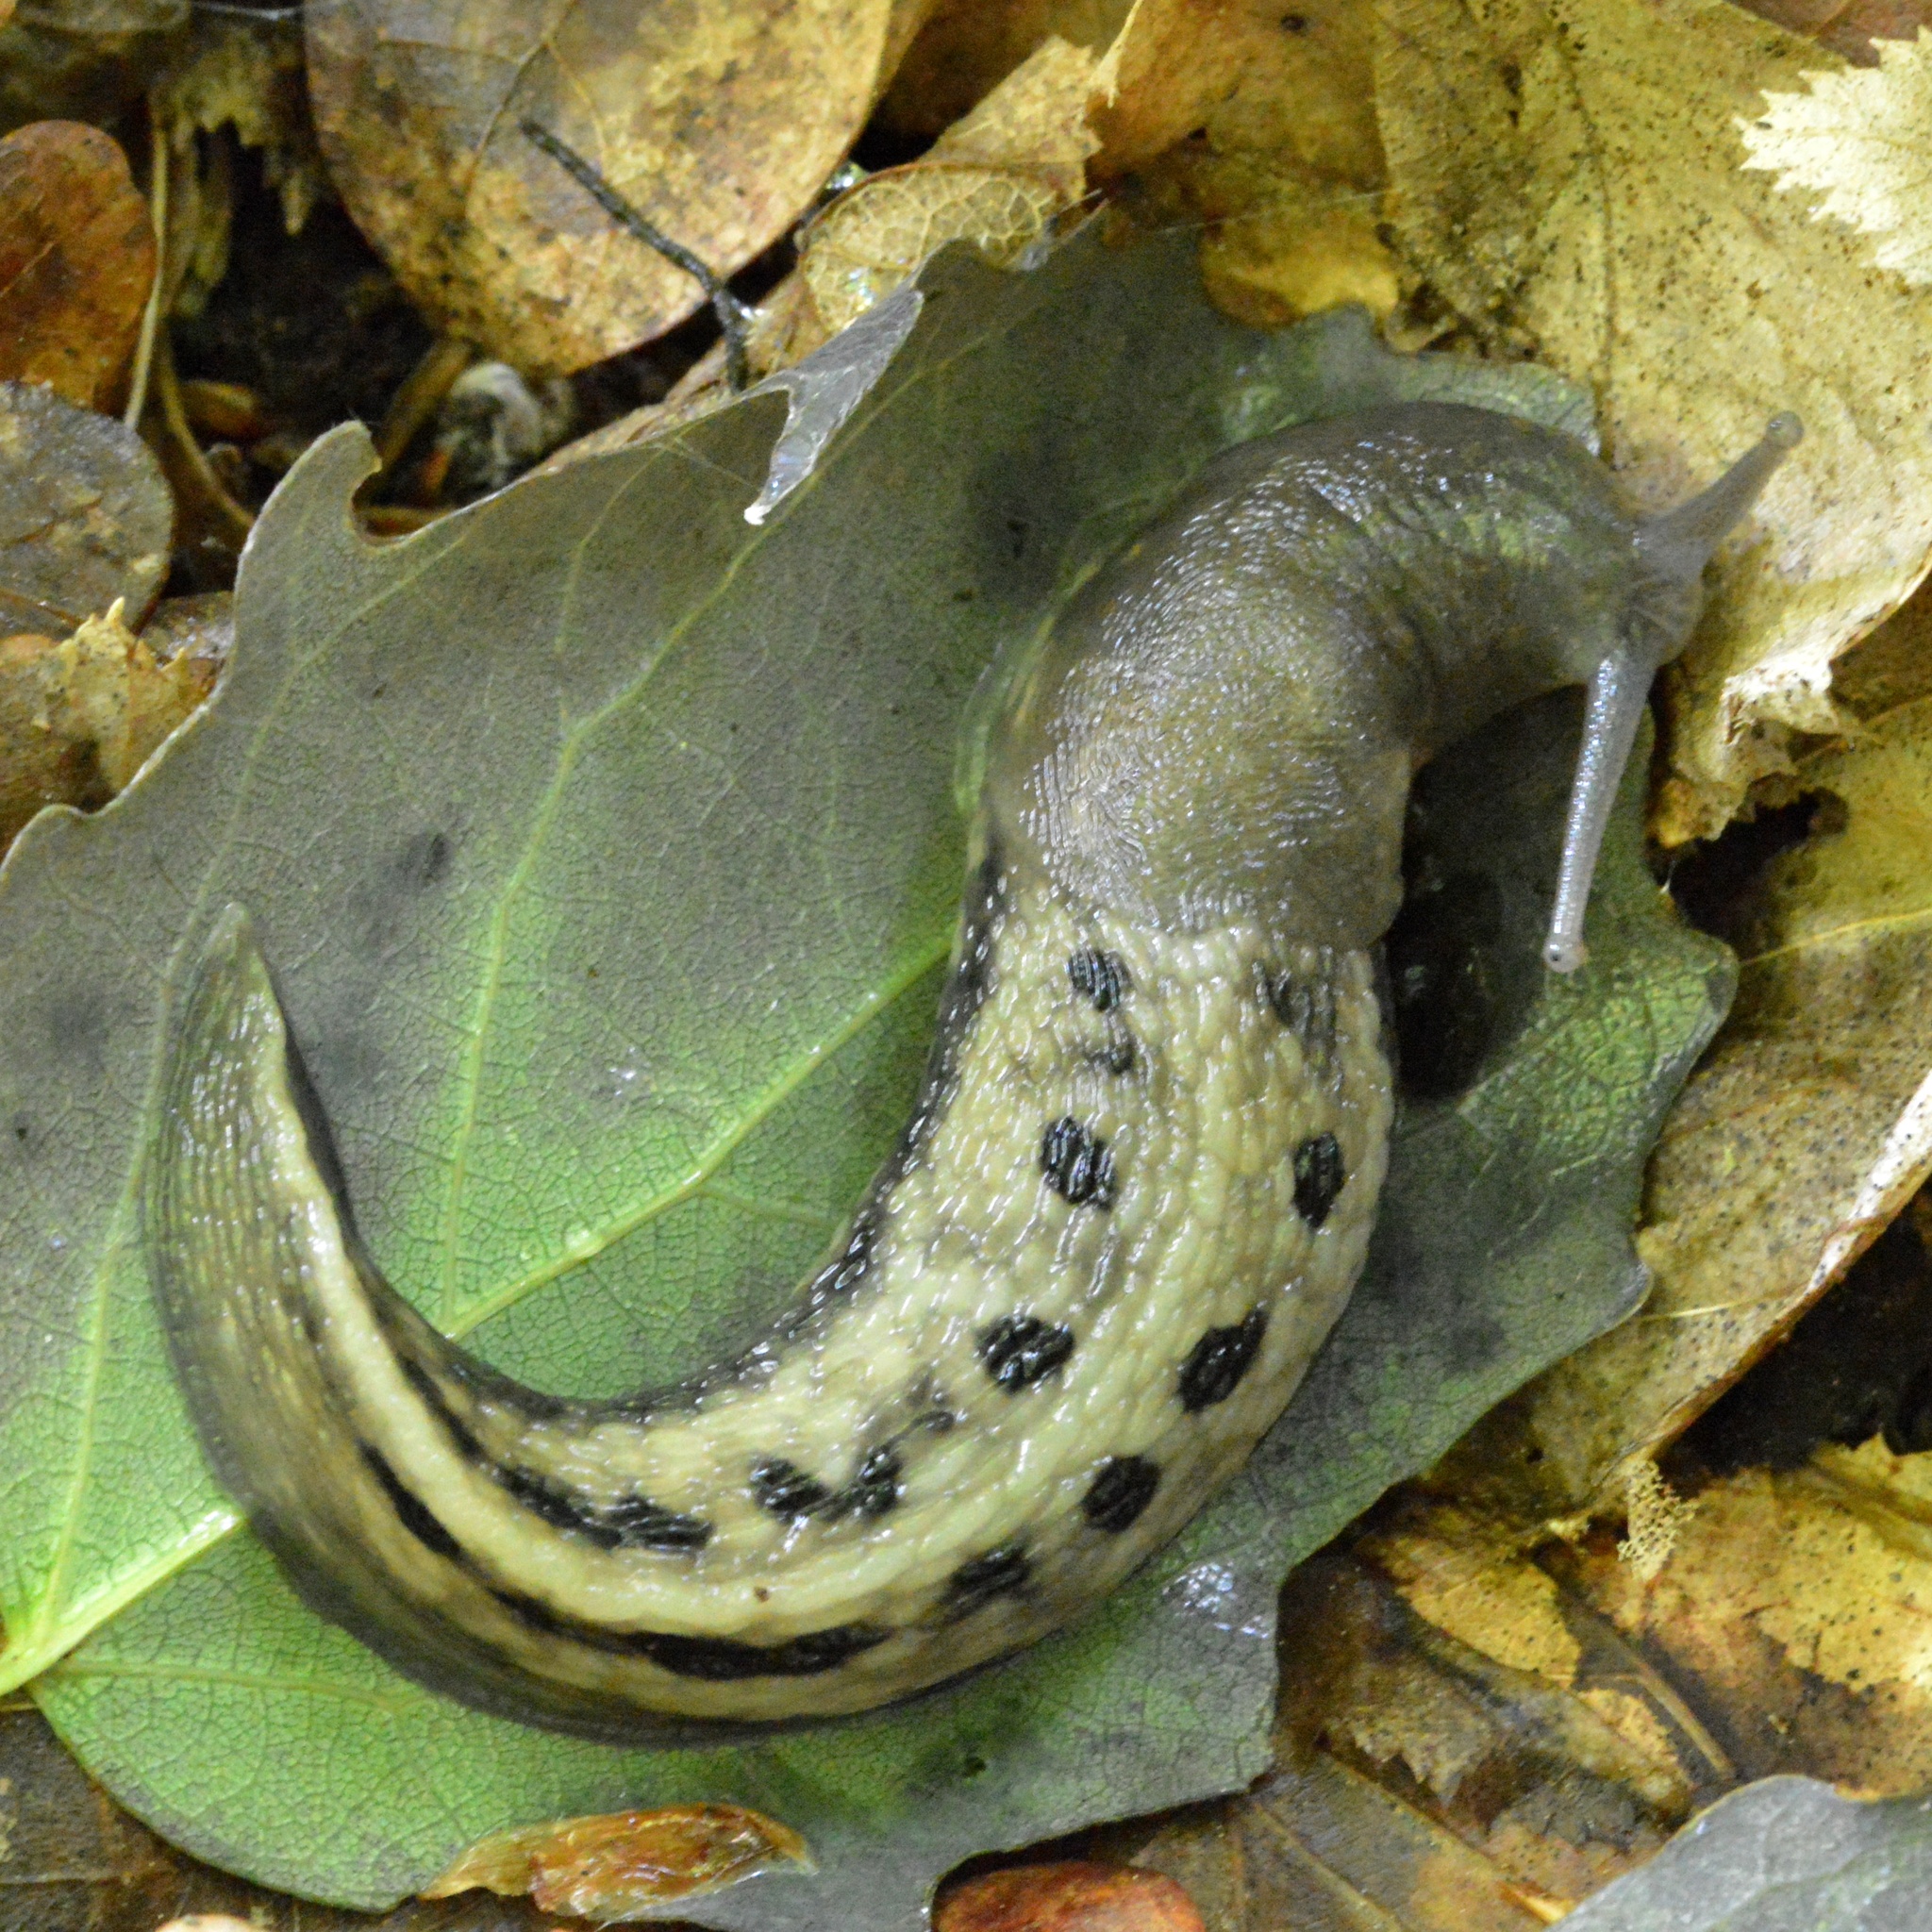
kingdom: Animalia
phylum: Mollusca
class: Gastropoda
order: Stylommatophora
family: Limacidae
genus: Limax
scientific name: Limax cinereoniger
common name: Ash-black slug
